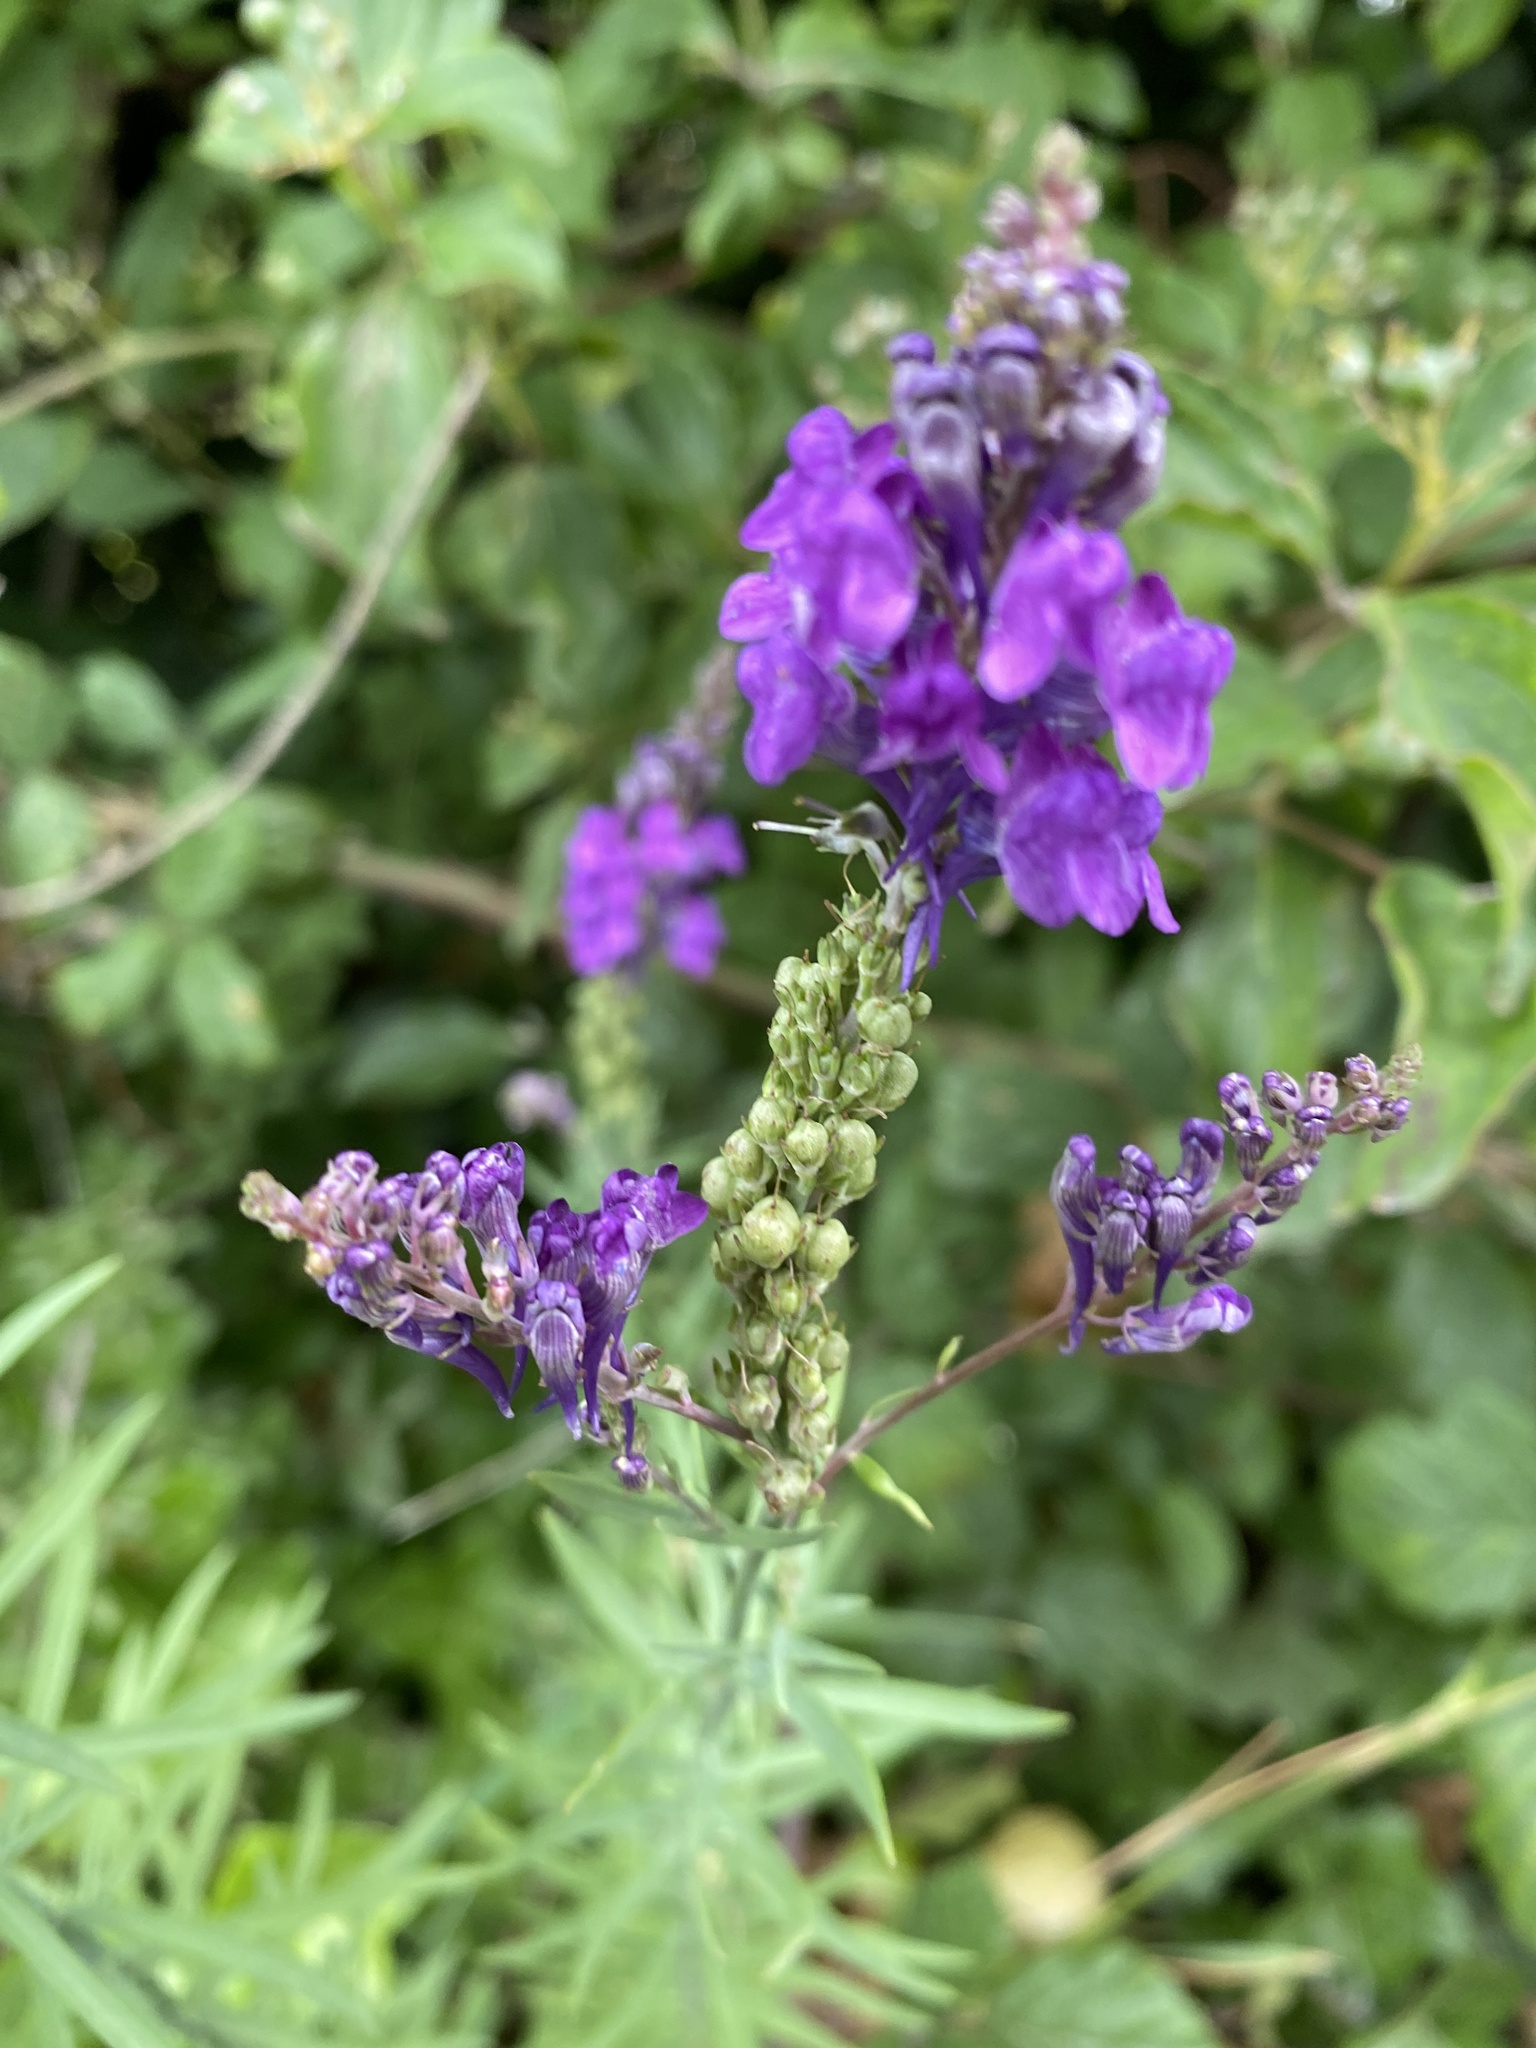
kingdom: Plantae
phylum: Tracheophyta
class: Magnoliopsida
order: Lamiales
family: Plantaginaceae
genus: Linaria
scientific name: Linaria purpurea
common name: Purple toadflax
